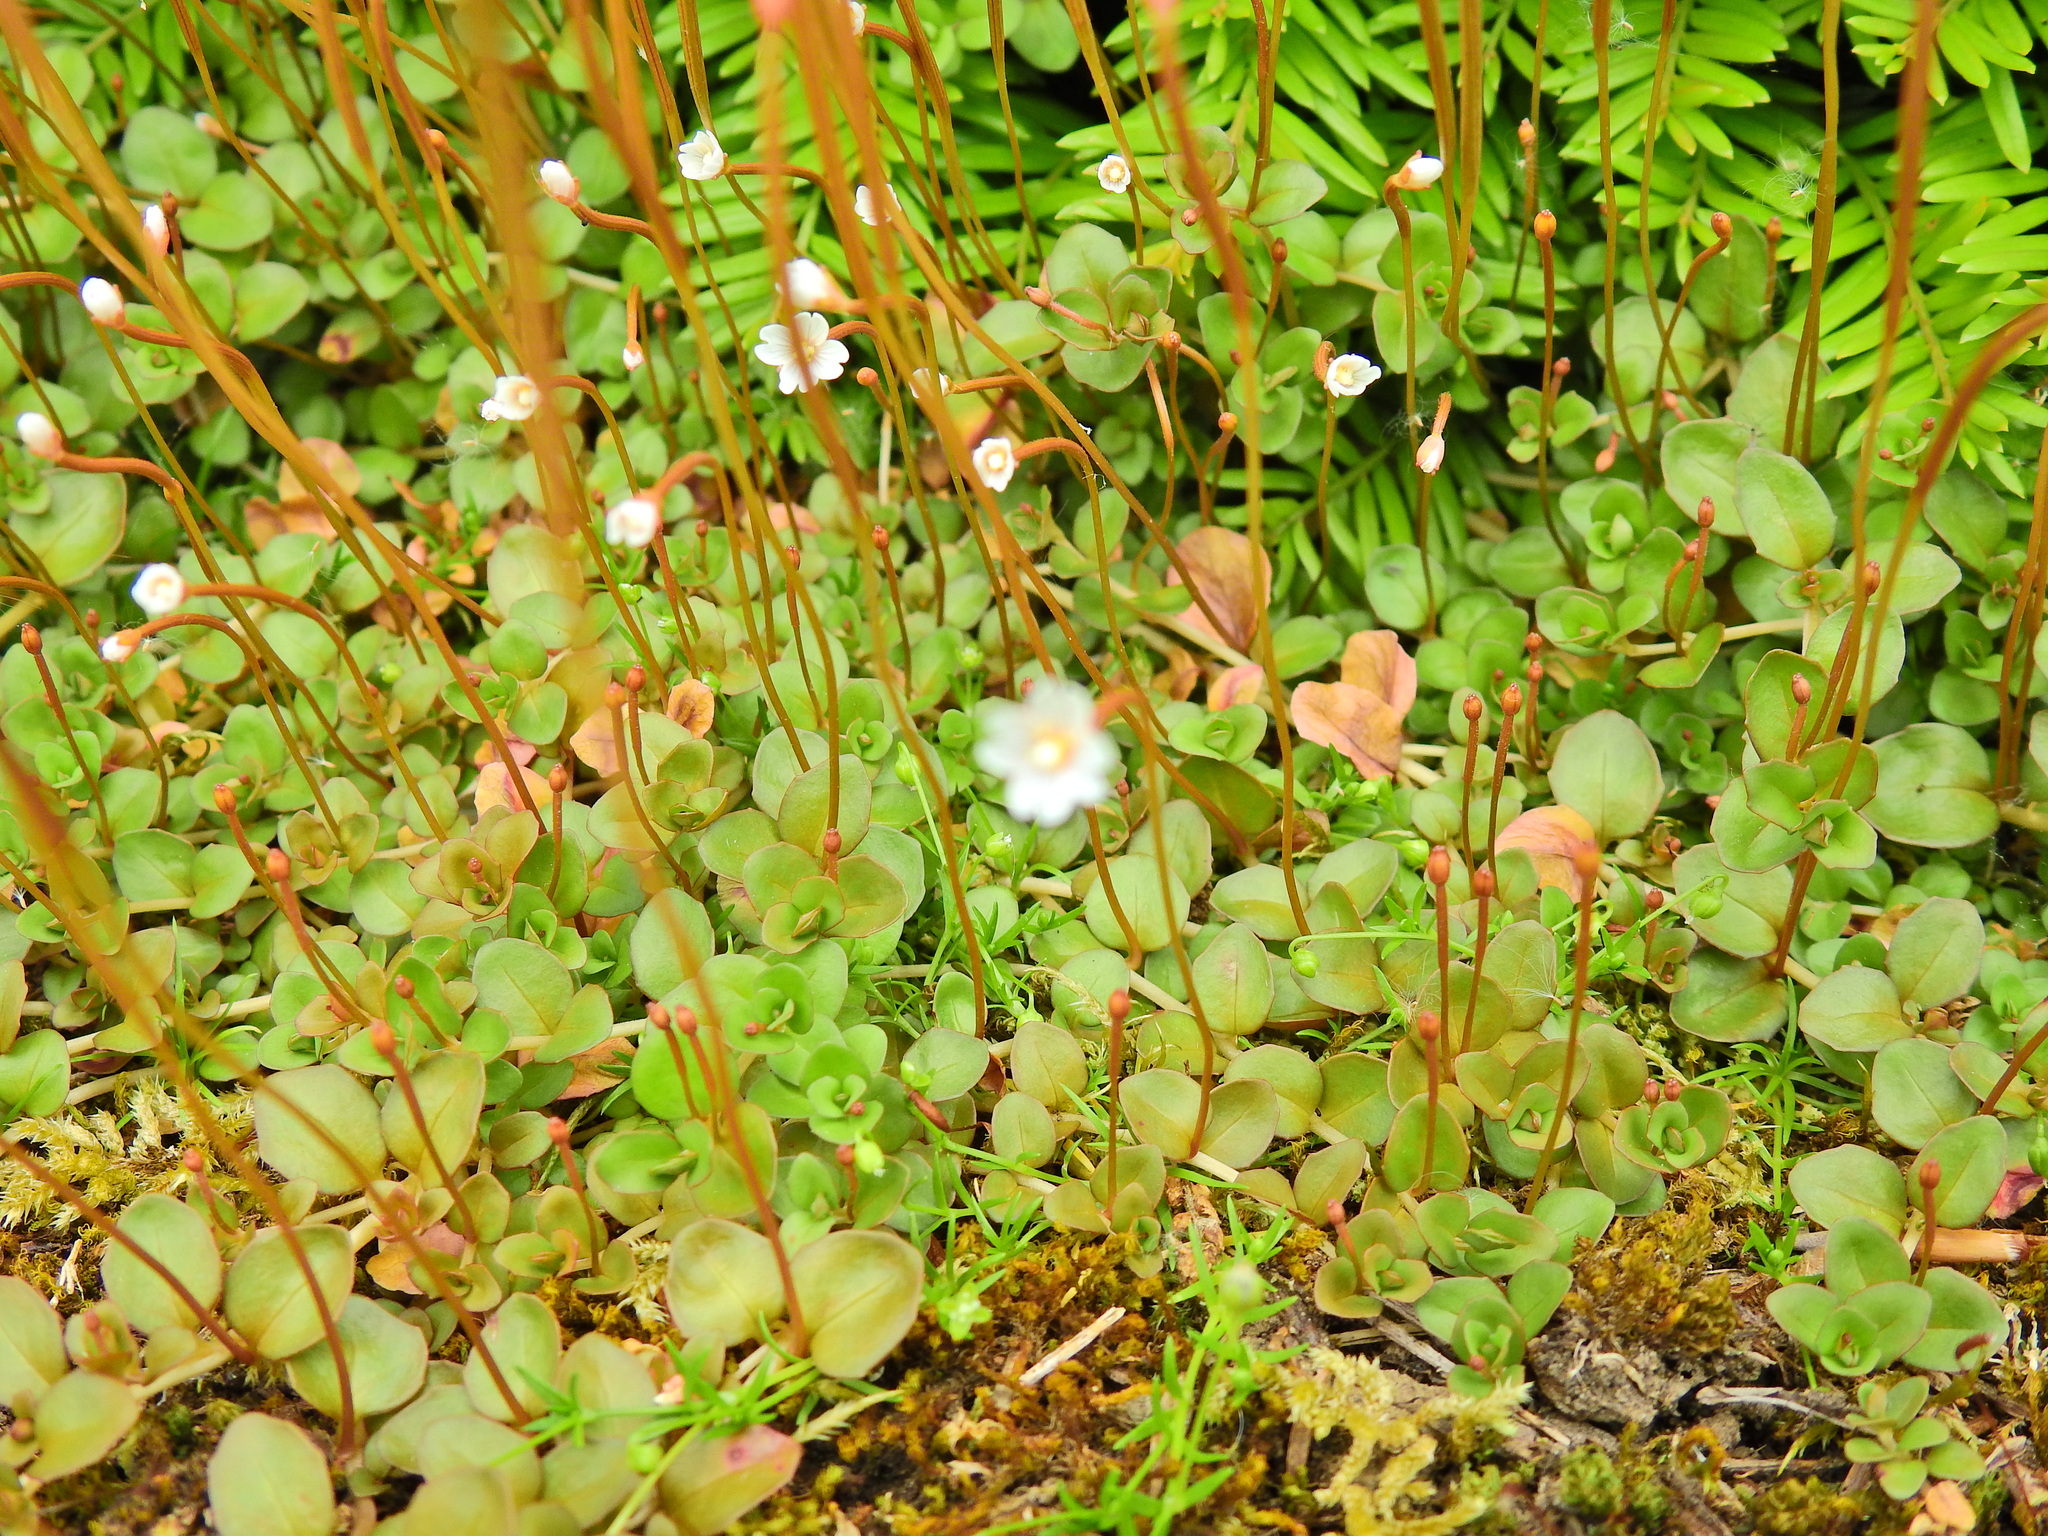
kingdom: Plantae
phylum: Tracheophyta
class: Magnoliopsida
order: Myrtales
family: Onagraceae
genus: Epilobium
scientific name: Epilobium brunnescens
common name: New zealand willowherb
